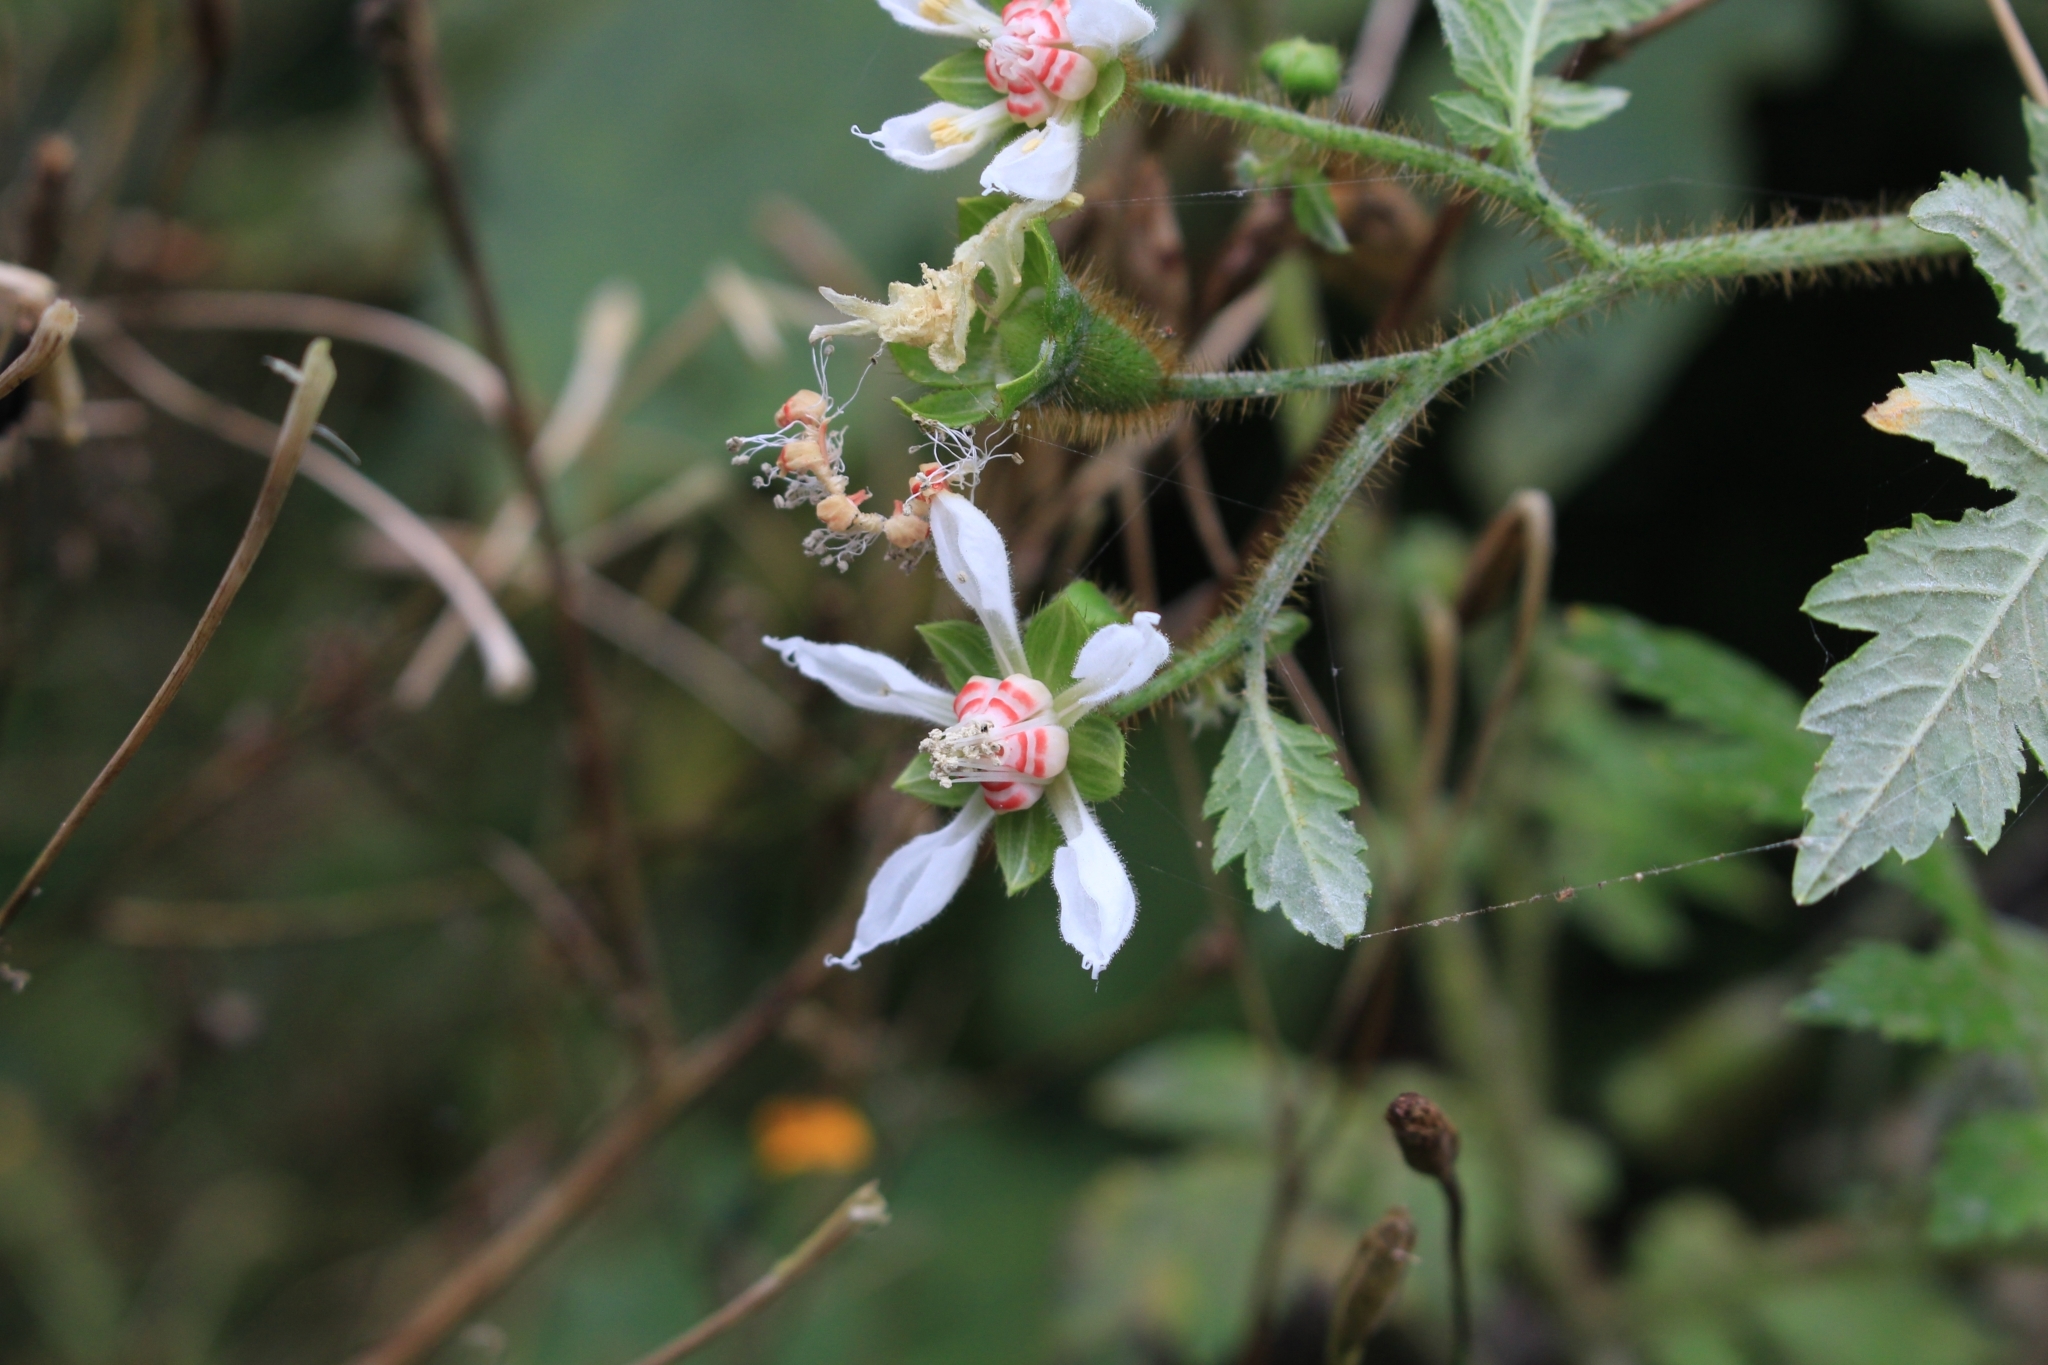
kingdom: Plantae
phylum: Tracheophyta
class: Magnoliopsida
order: Cornales
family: Loasaceae
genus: Nasa
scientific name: Nasa triphylla
